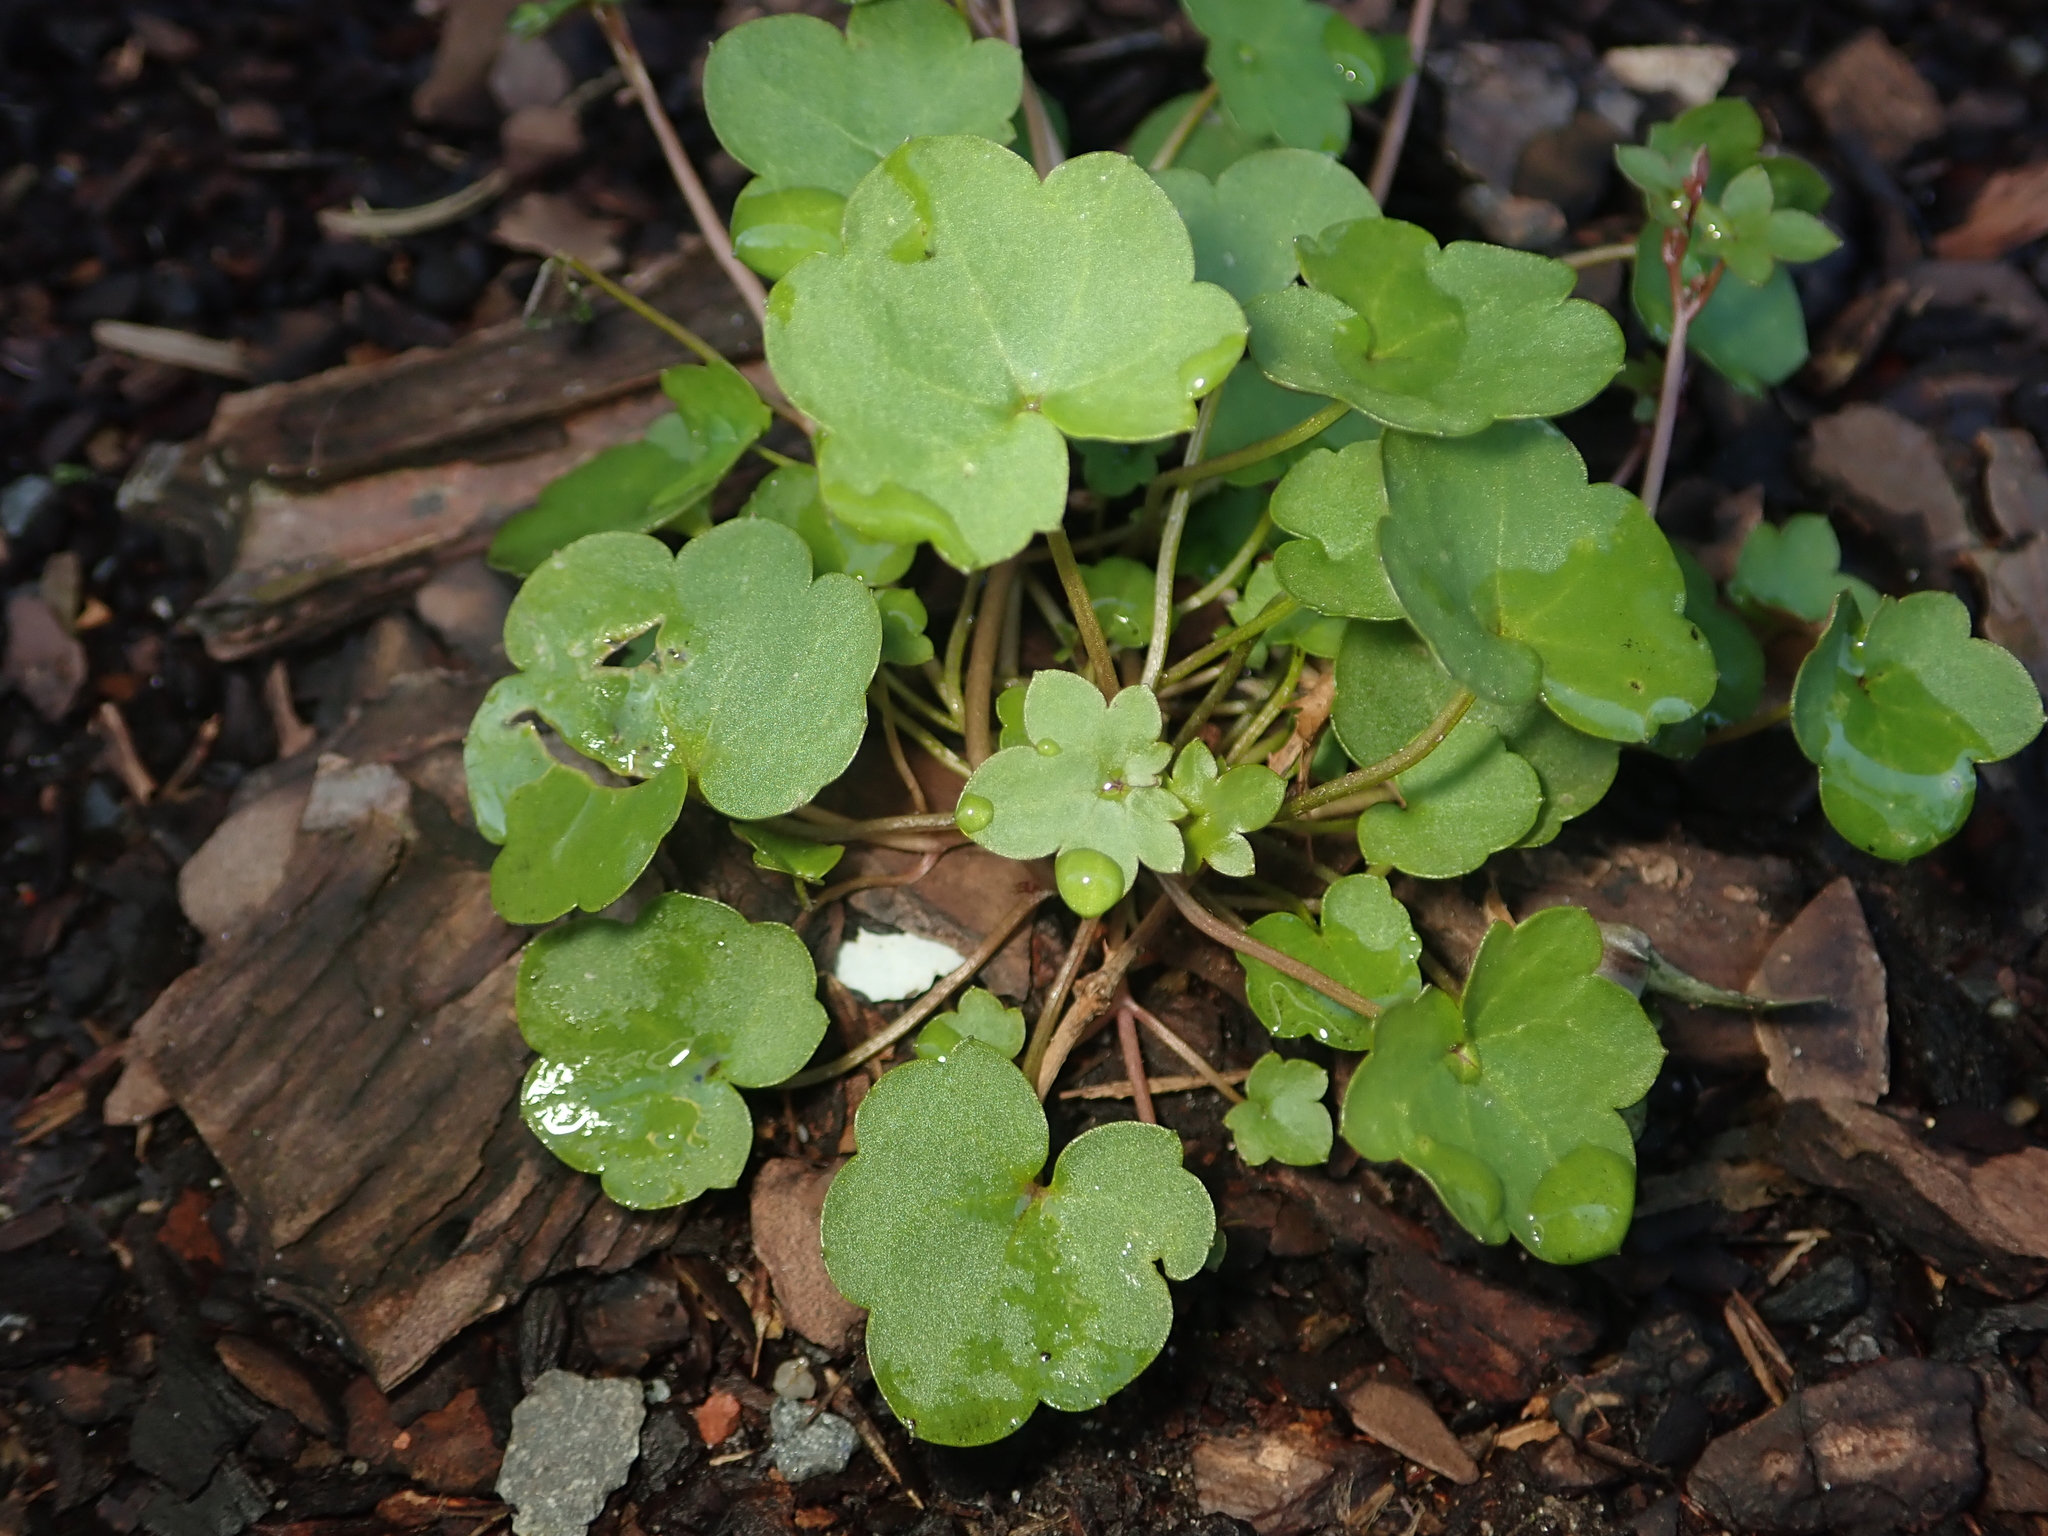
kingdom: Plantae
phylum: Tracheophyta
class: Magnoliopsida
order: Lamiales
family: Plantaginaceae
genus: Cymbalaria
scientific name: Cymbalaria muralis
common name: Ivy-leaved toadflax
